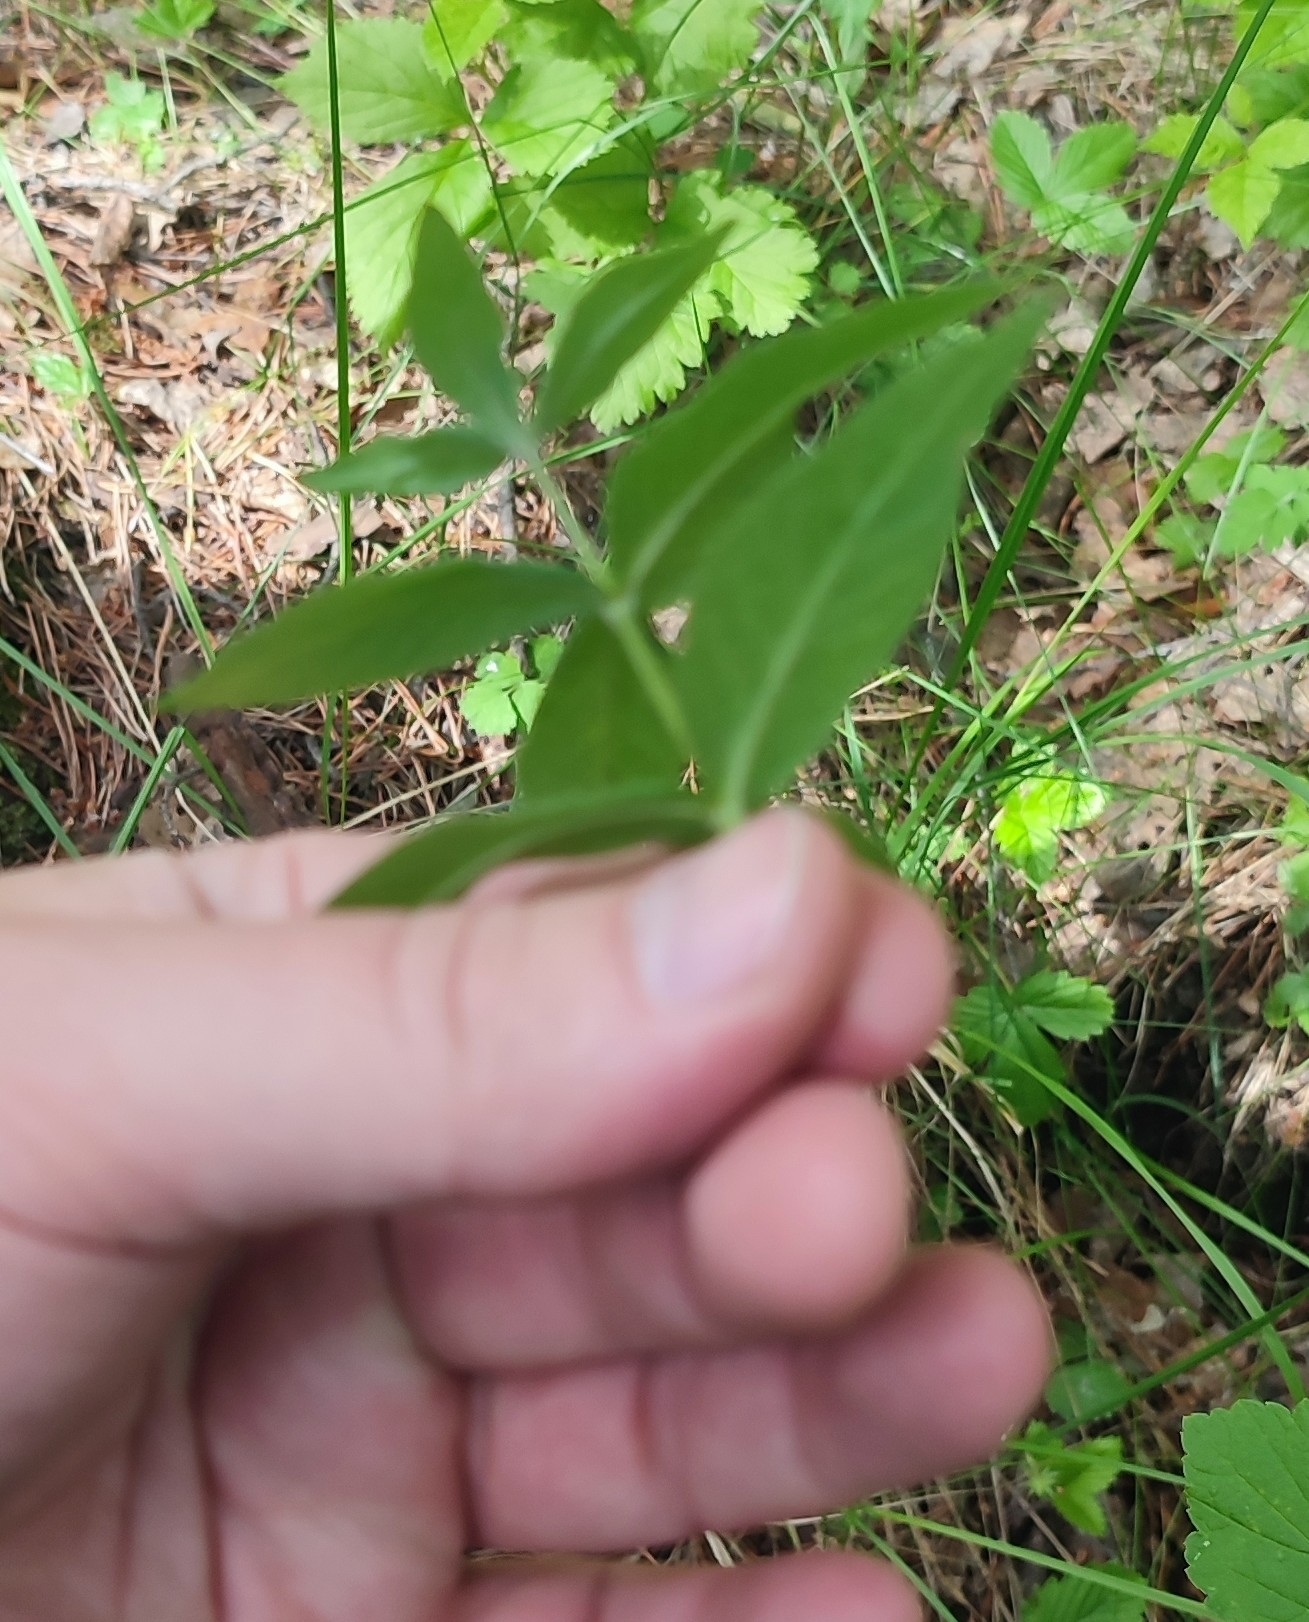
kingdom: Plantae
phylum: Tracheophyta
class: Magnoliopsida
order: Ericales
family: Primulaceae
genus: Lysimachia
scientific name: Lysimachia vulgaris
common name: Yellow loosestrife
